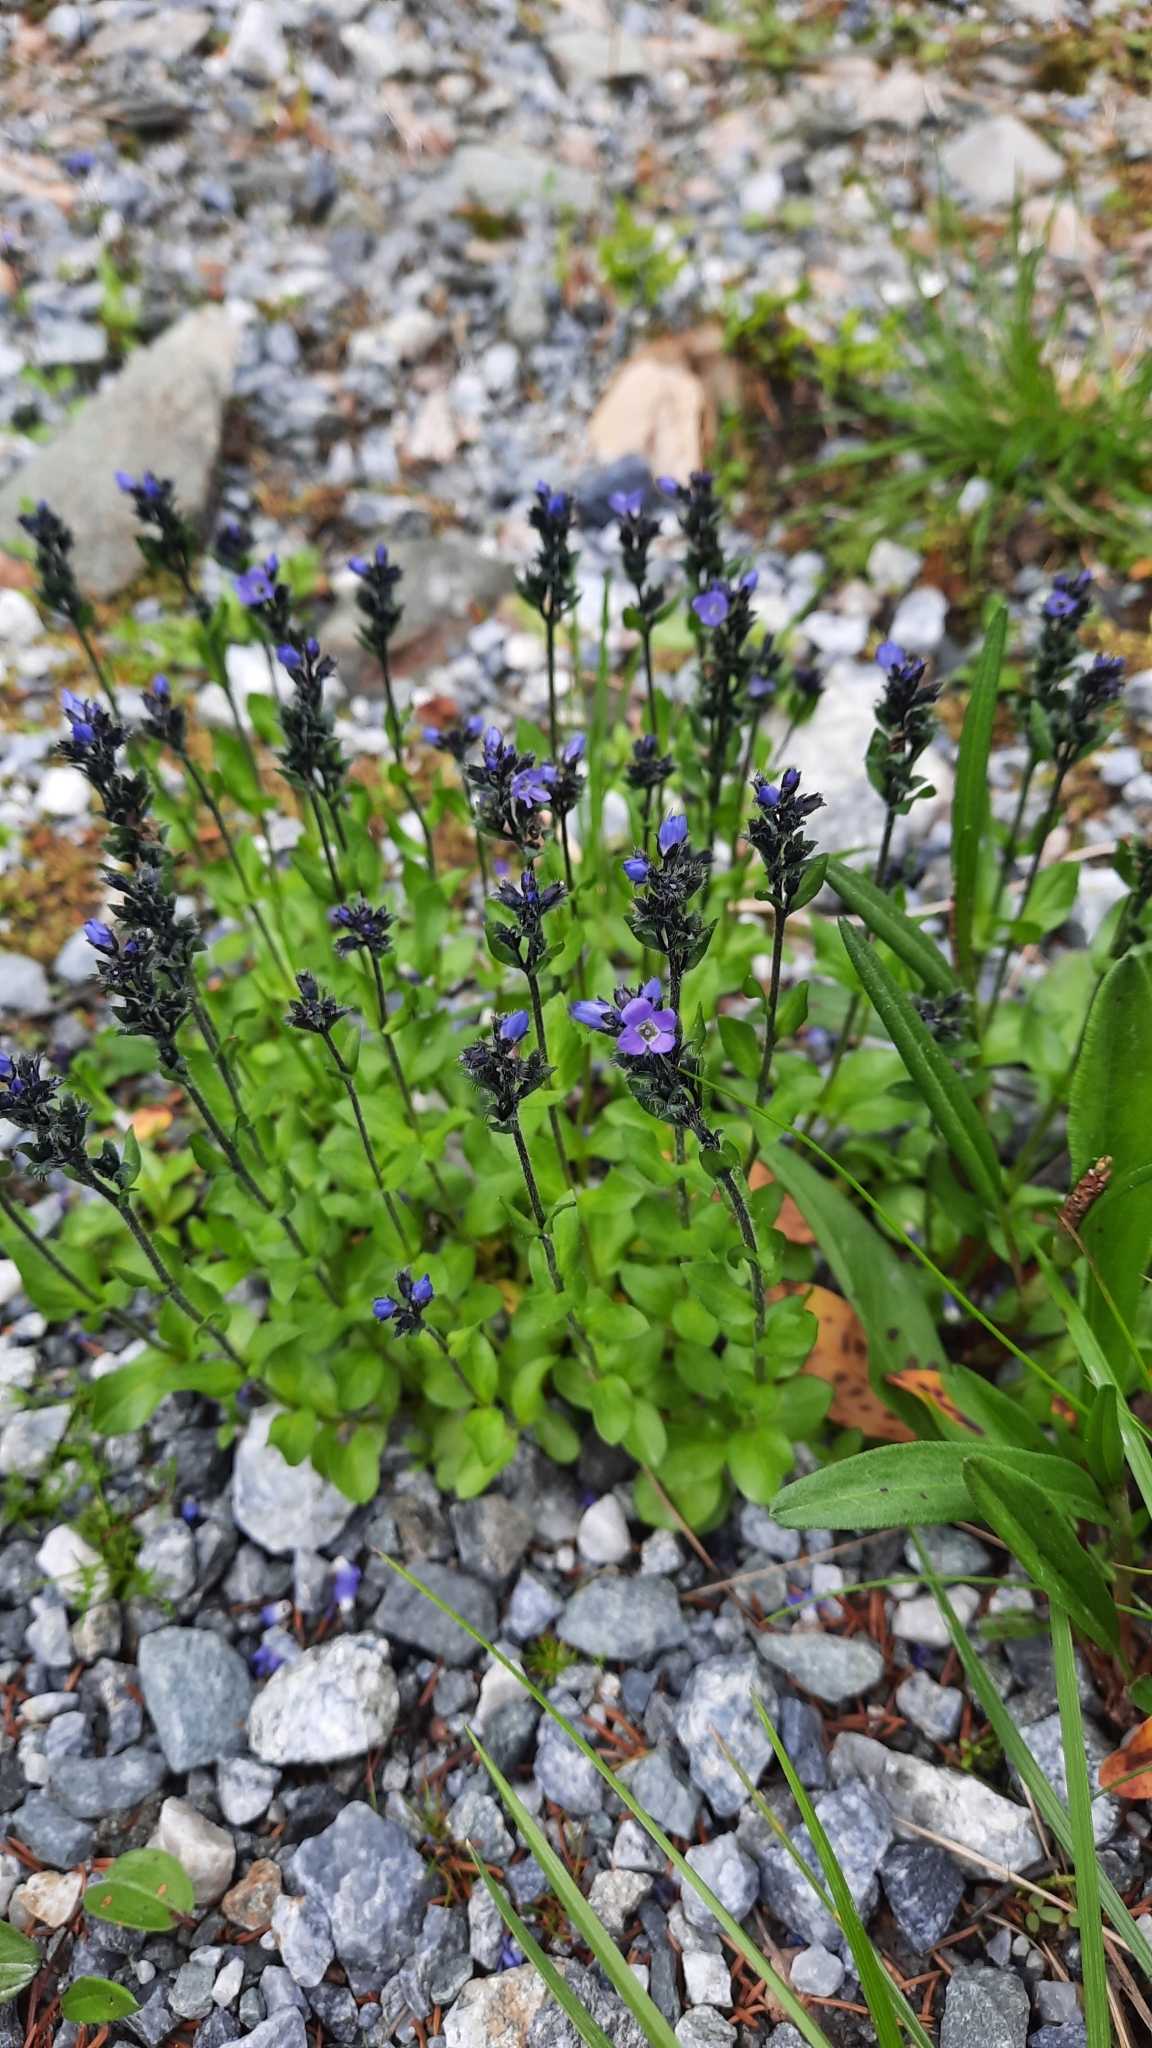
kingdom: Plantae
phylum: Tracheophyta
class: Magnoliopsida
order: Lamiales
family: Plantaginaceae
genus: Veronica
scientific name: Veronica alpina
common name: Alpine speedwell
